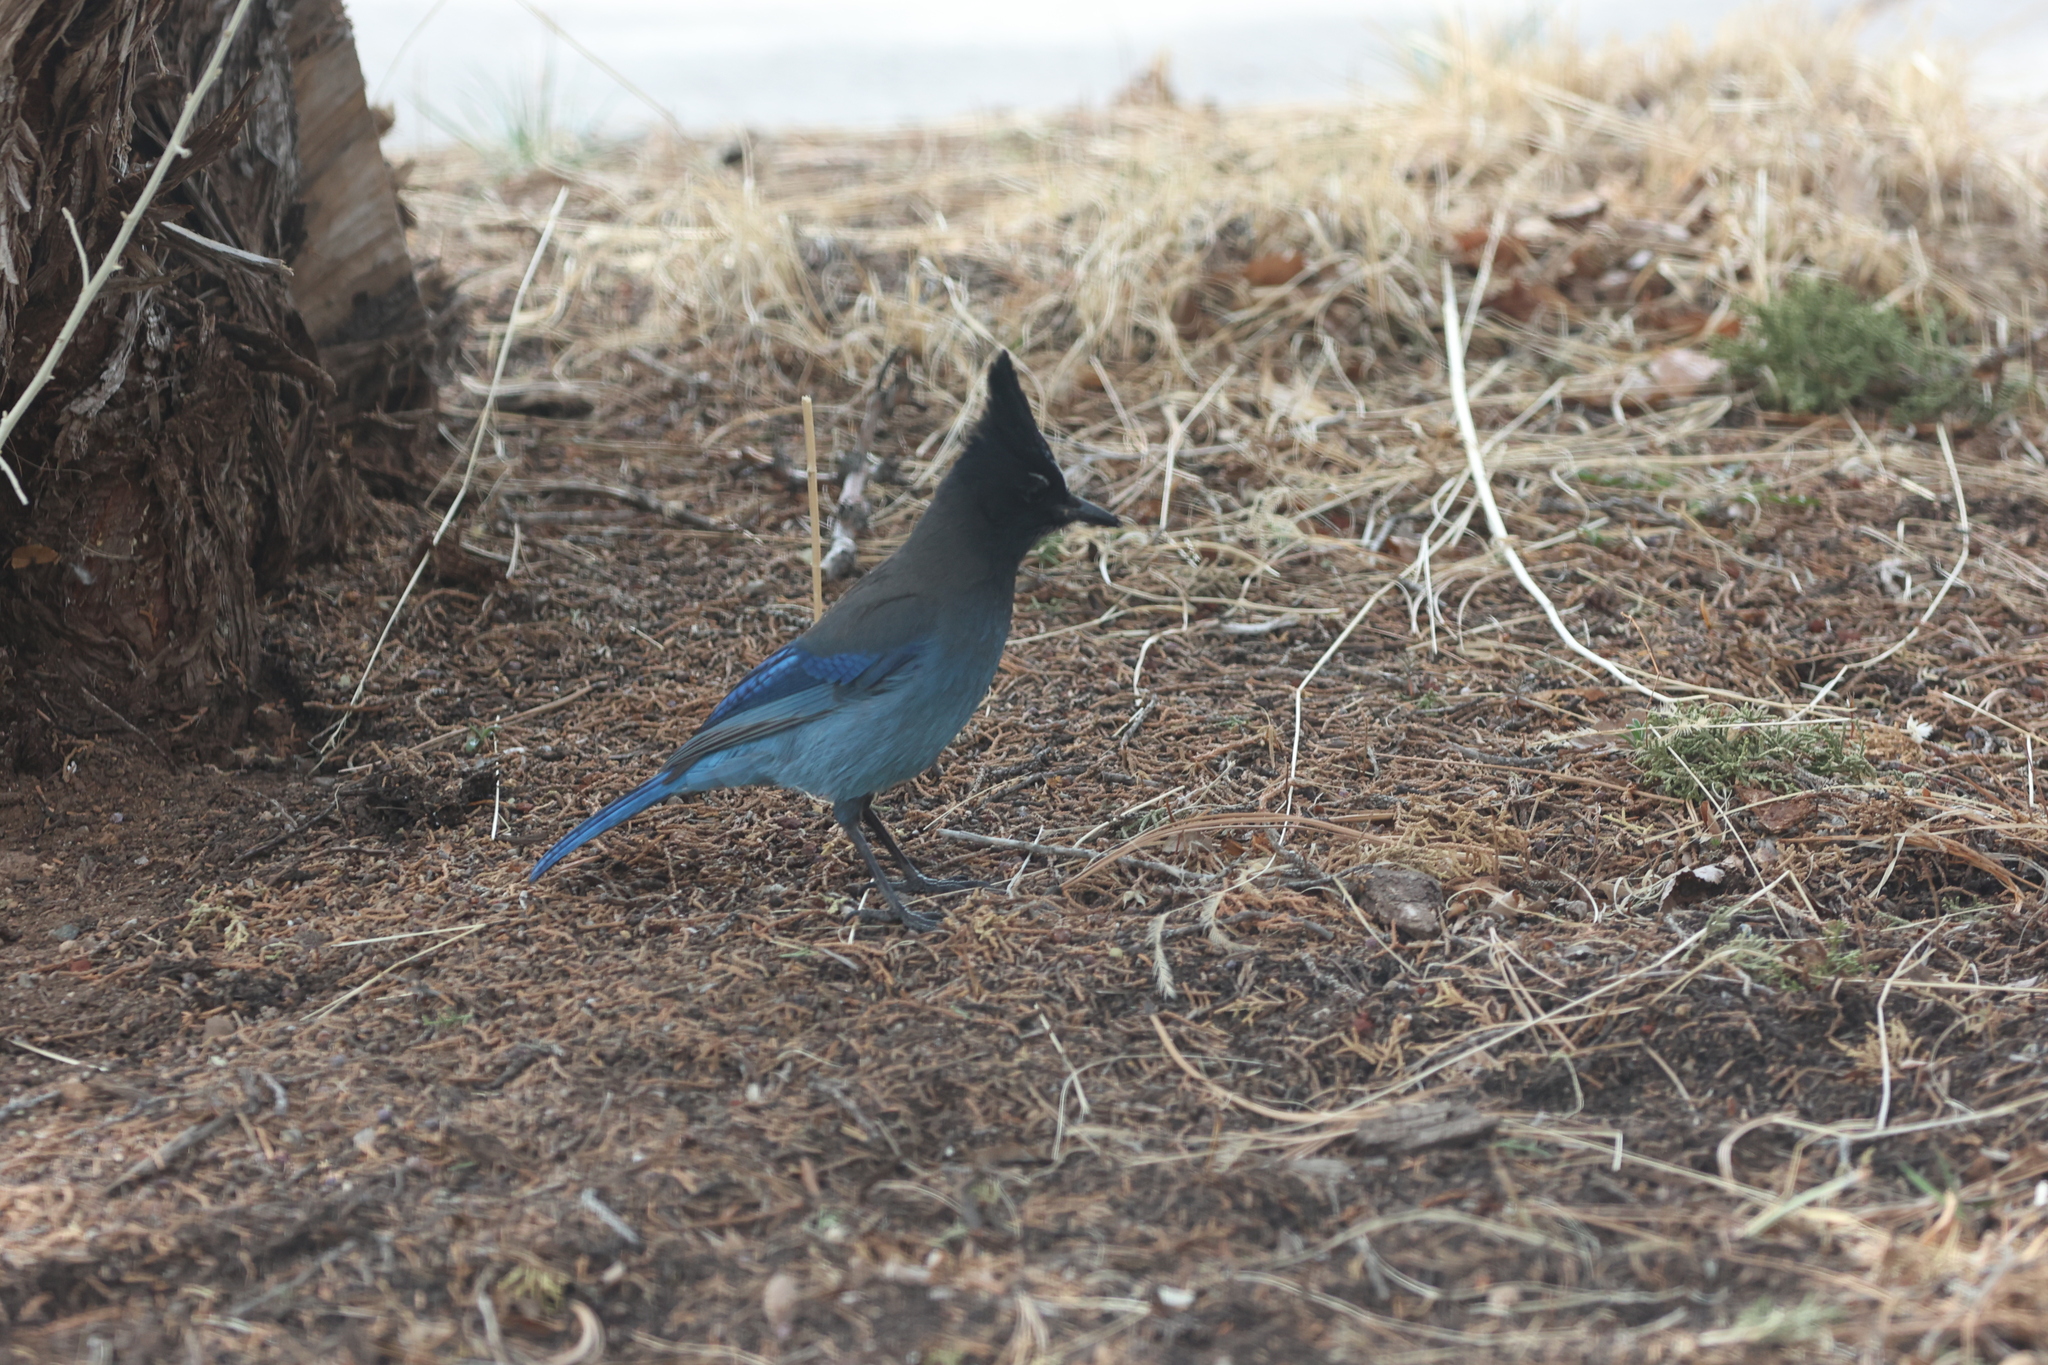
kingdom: Animalia
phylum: Chordata
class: Aves
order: Passeriformes
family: Corvidae
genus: Cyanocitta
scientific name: Cyanocitta stelleri
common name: Steller's jay
